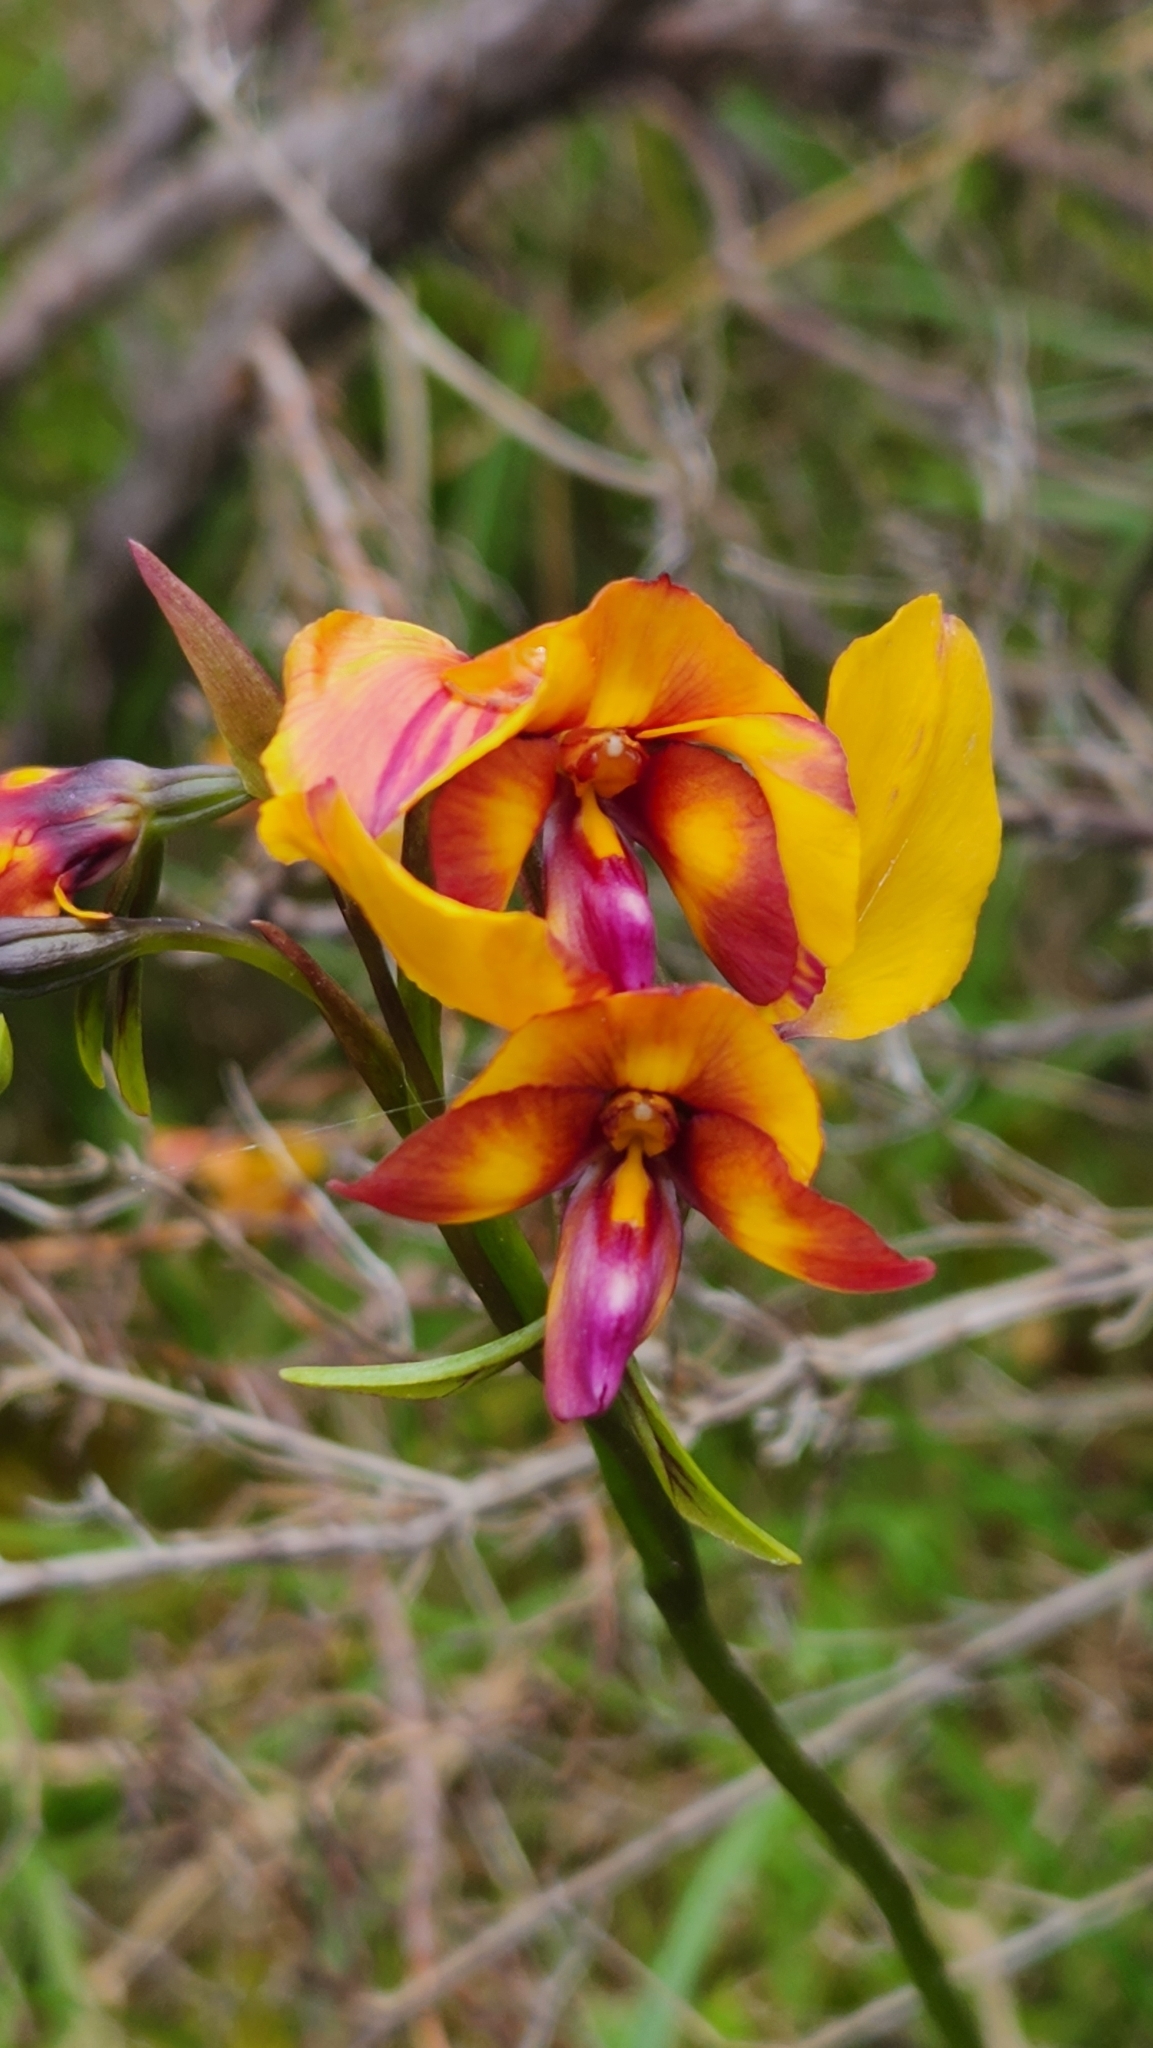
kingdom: Plantae
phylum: Tracheophyta
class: Liliopsida
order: Asparagales
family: Orchidaceae
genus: Diuris
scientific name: Diuris magnifica
